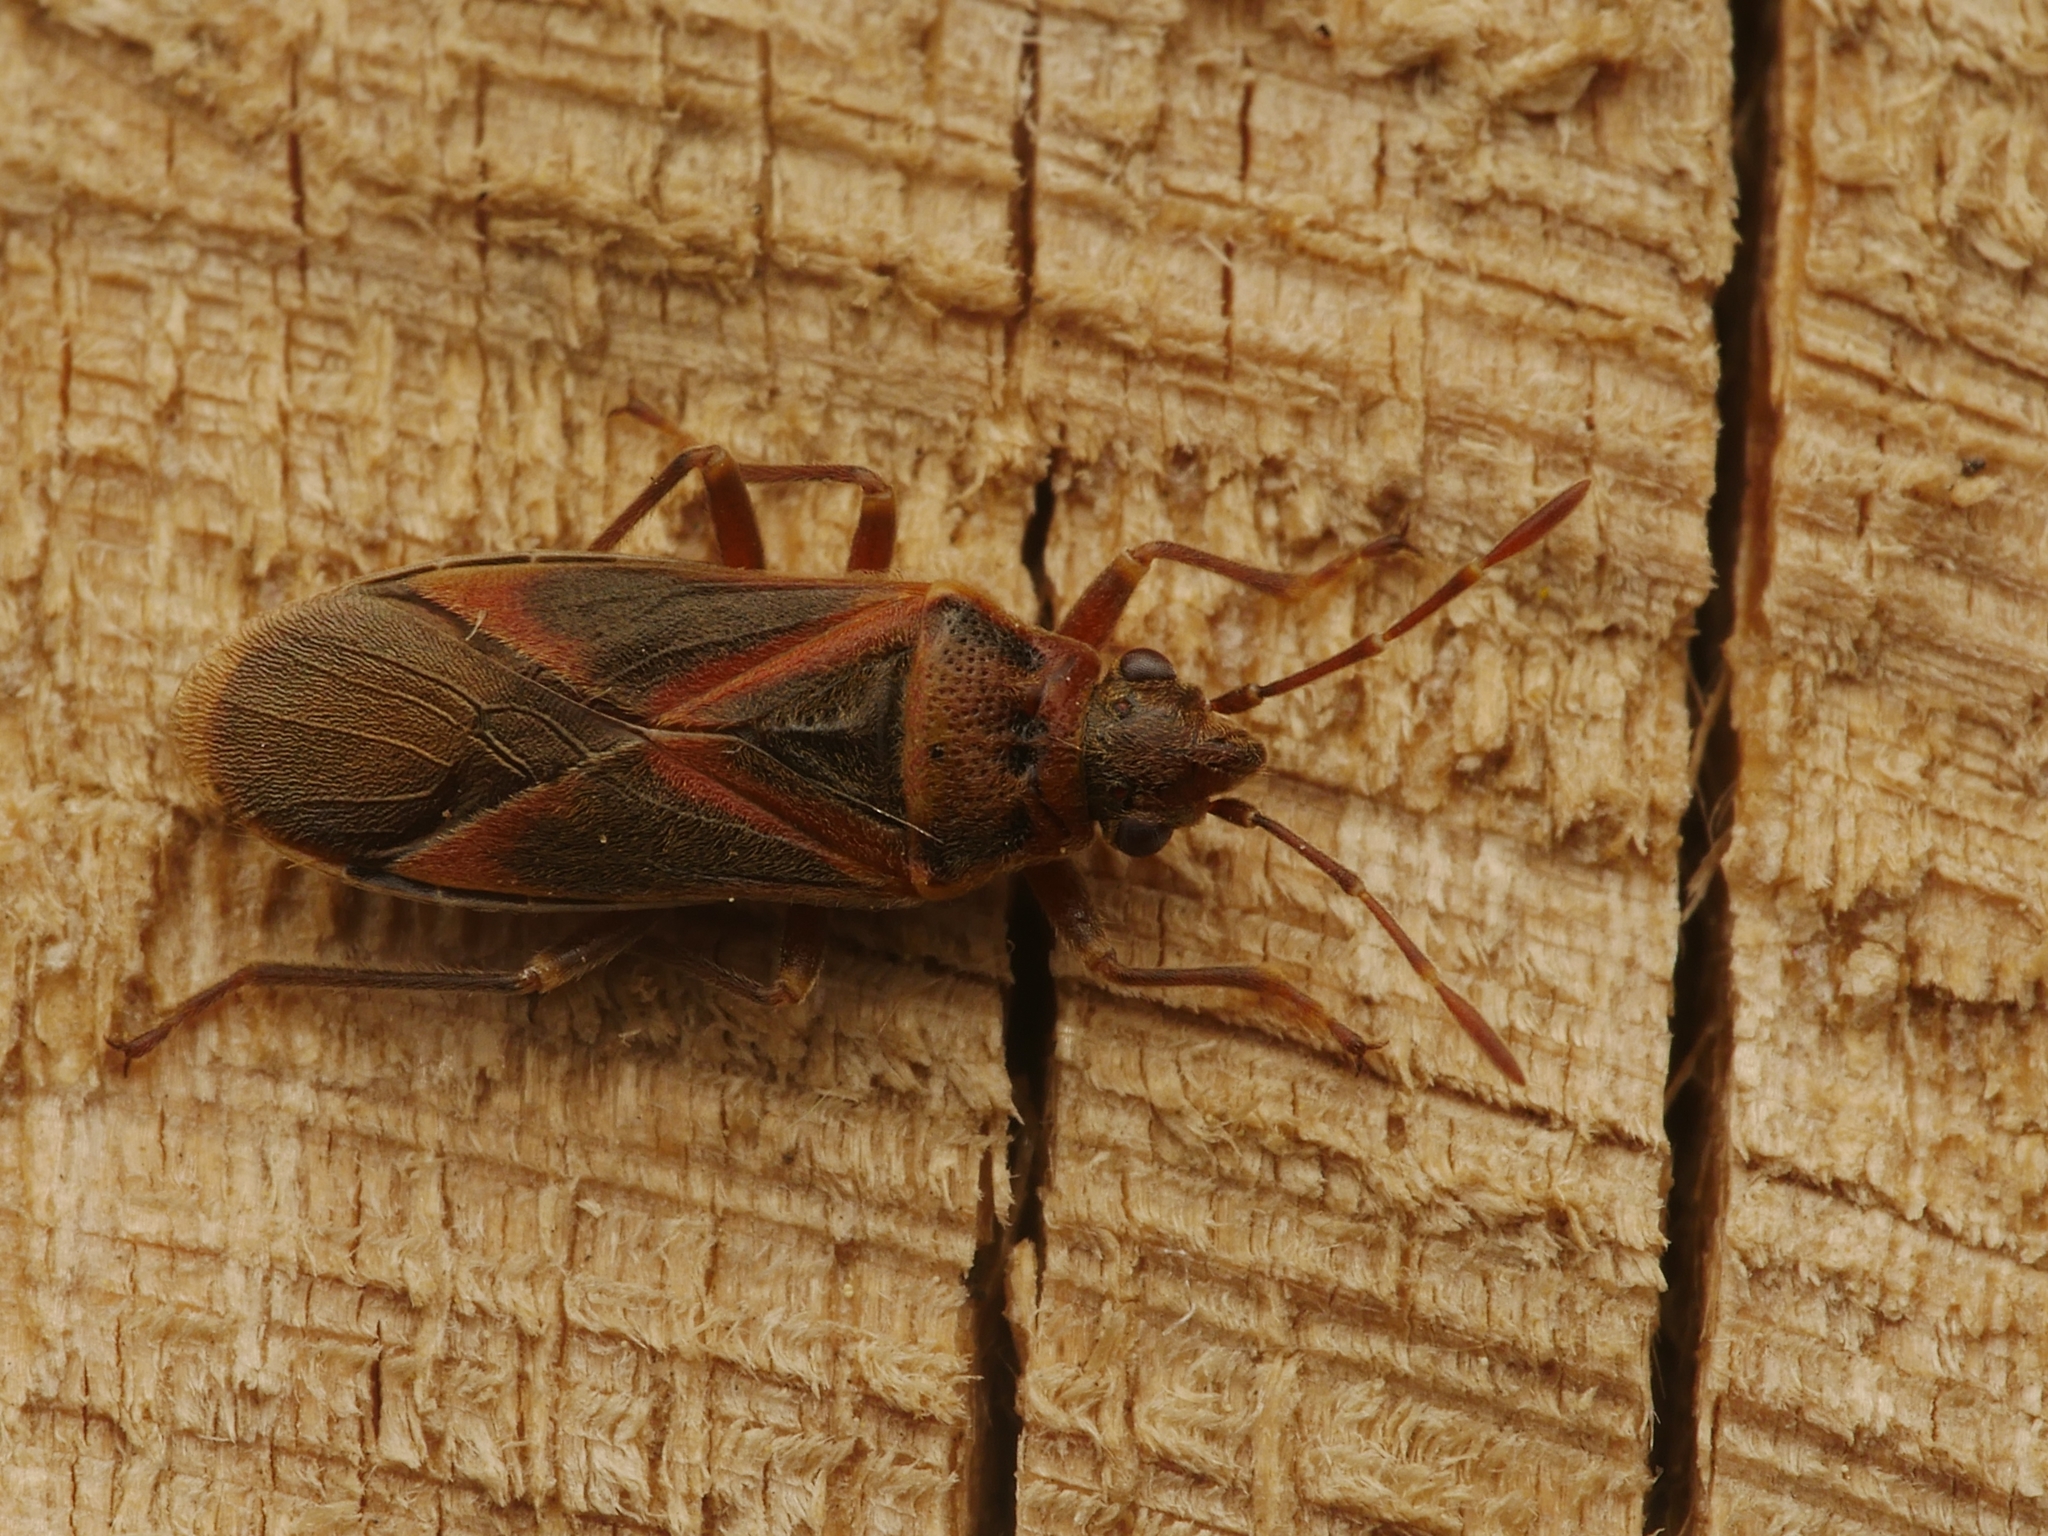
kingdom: Animalia
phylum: Arthropoda
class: Insecta
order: Hemiptera
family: Lygaeidae
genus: Arocatus
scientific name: Arocatus melanocephalus
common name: Lygaeid bug
